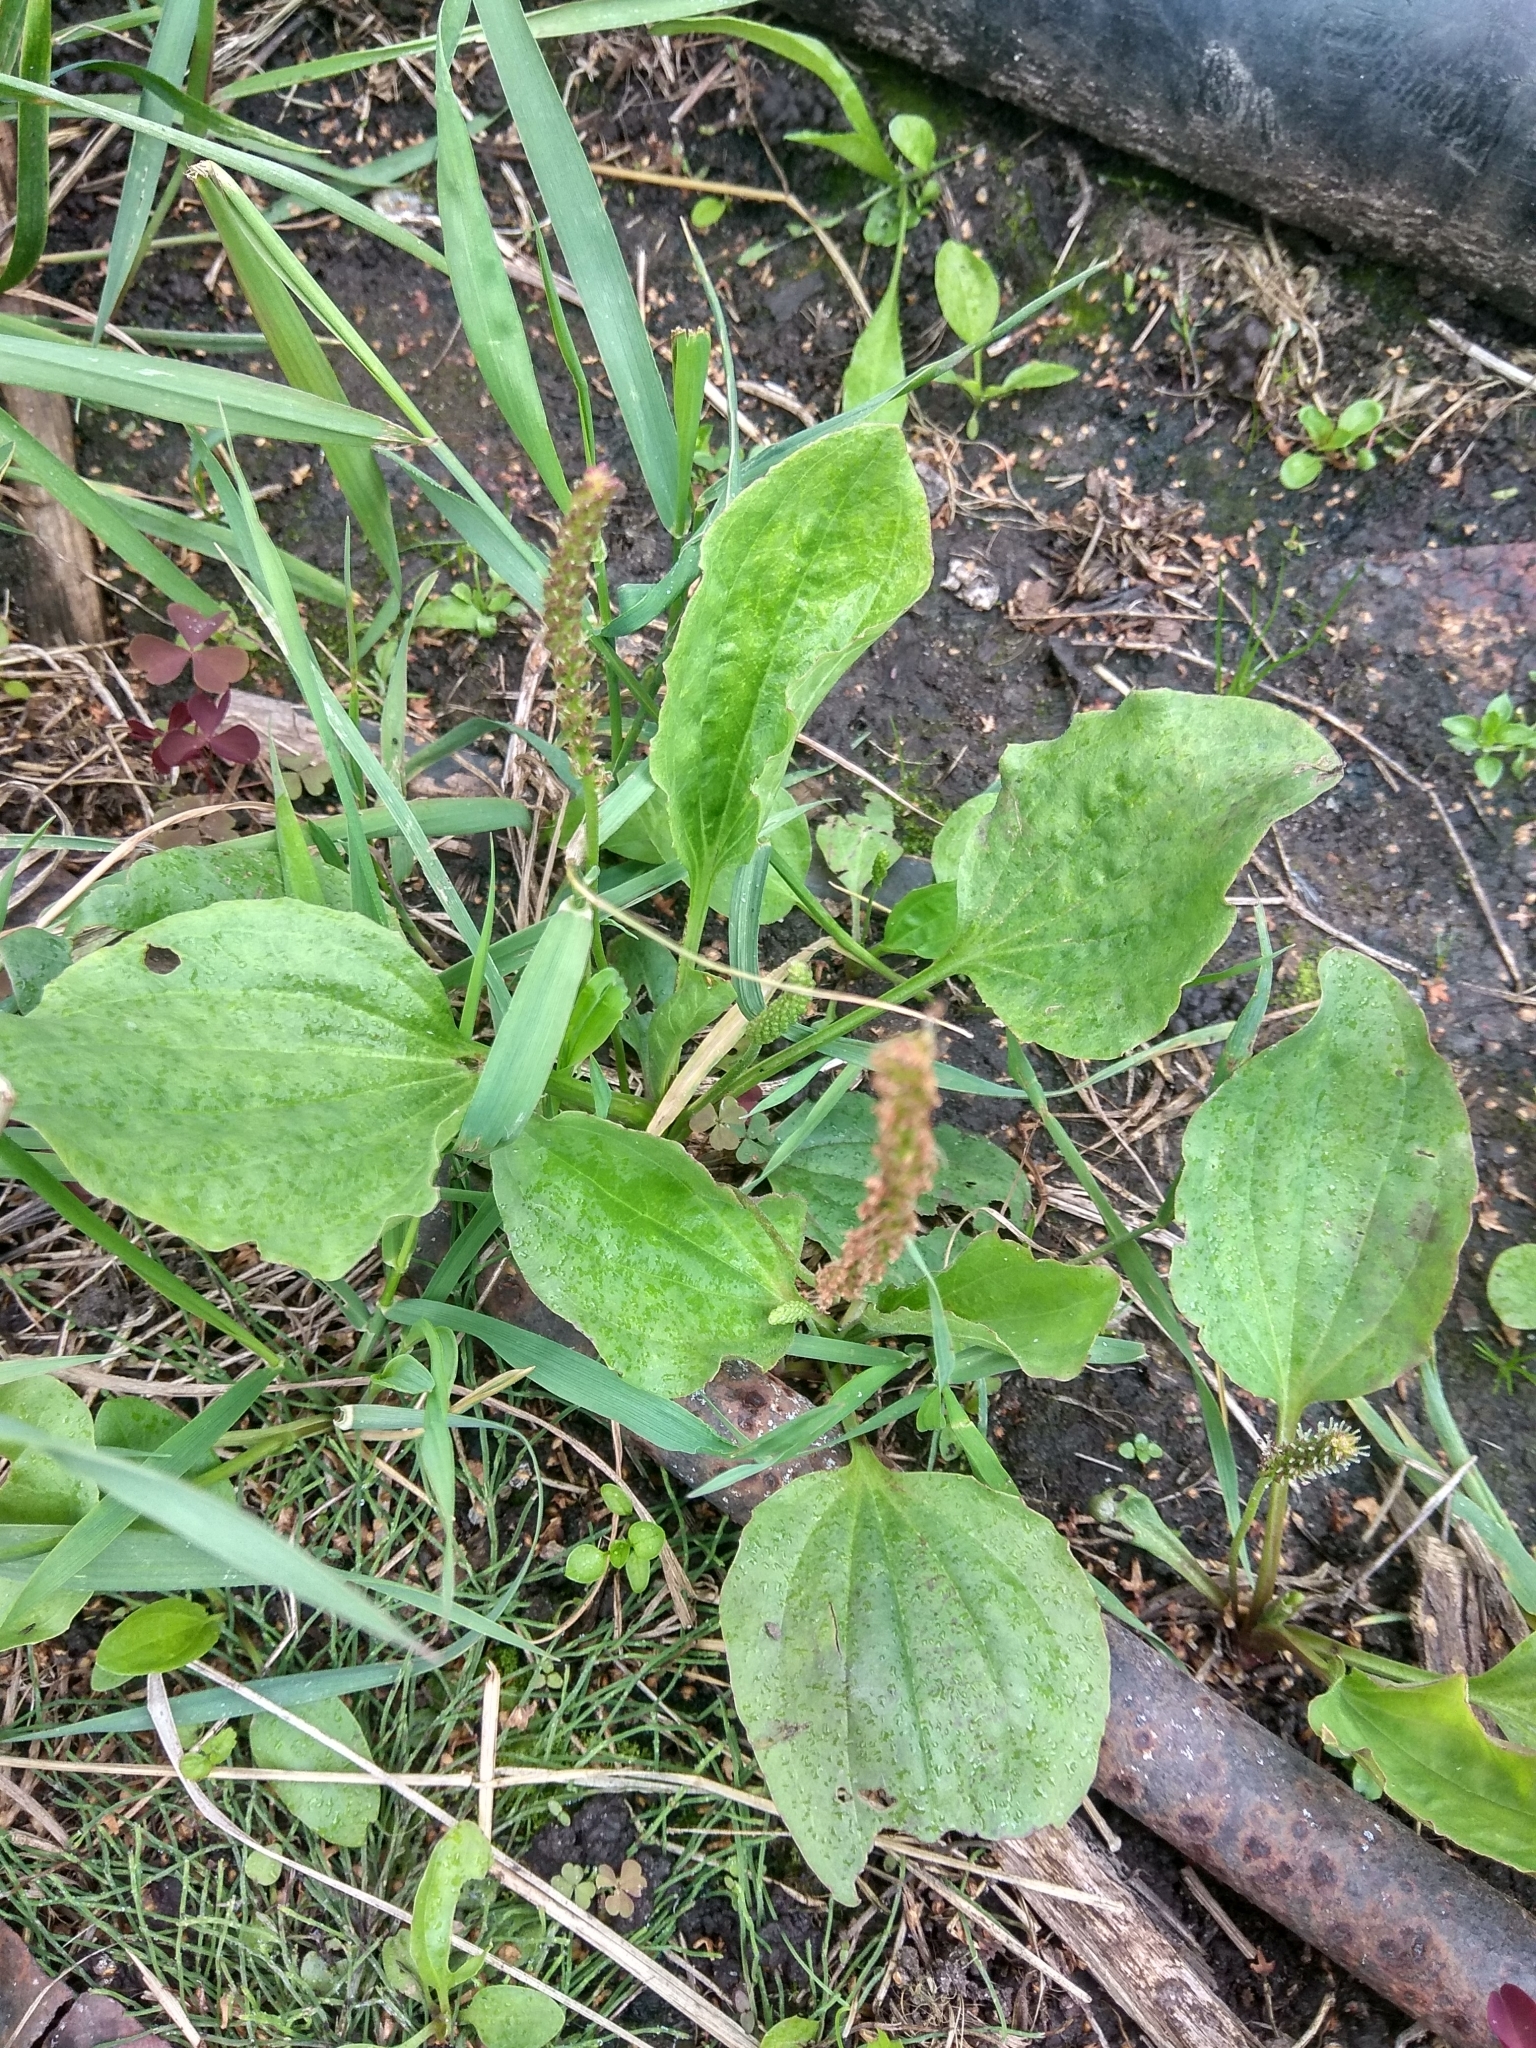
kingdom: Plantae
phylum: Tracheophyta
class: Magnoliopsida
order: Lamiales
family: Plantaginaceae
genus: Plantago
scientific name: Plantago major
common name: Common plantain
